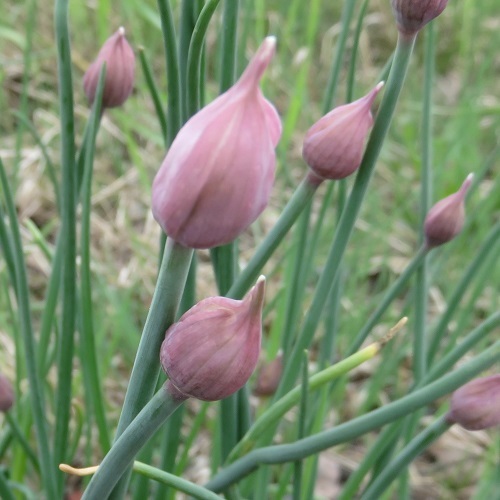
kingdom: Plantae
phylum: Tracheophyta
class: Liliopsida
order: Asparagales
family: Amaryllidaceae
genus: Allium
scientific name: Allium schoenoprasum
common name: Chives
